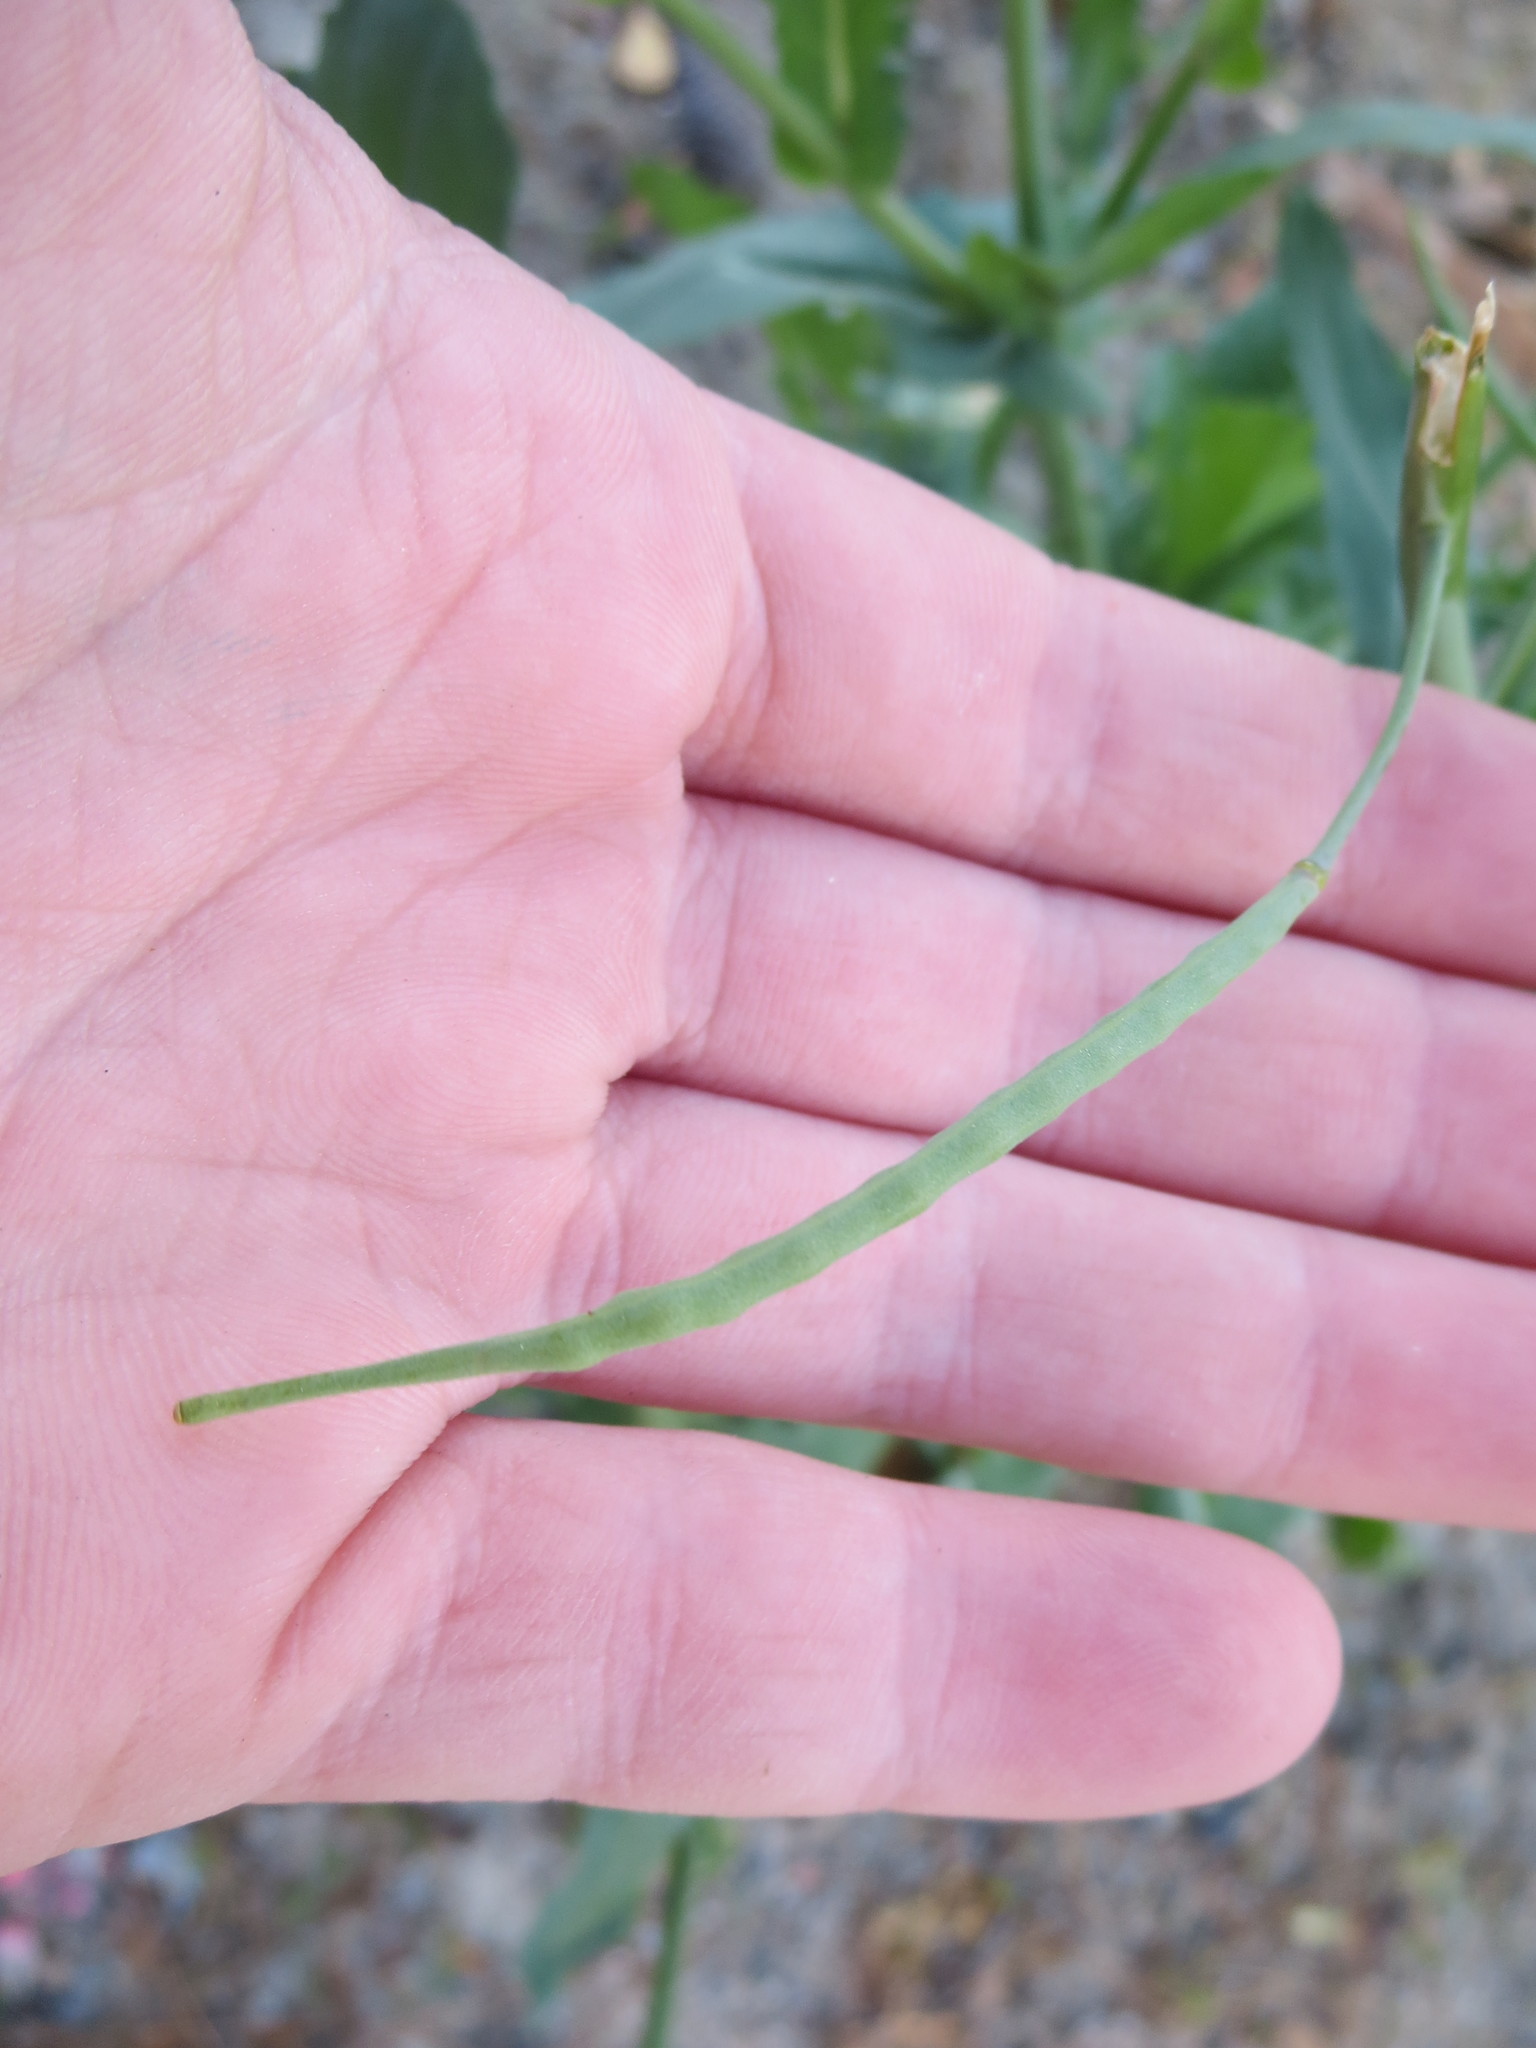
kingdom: Plantae
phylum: Tracheophyta
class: Magnoliopsida
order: Brassicales
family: Brassicaceae
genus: Brassica
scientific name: Brassica oleracea
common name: Cabbage
